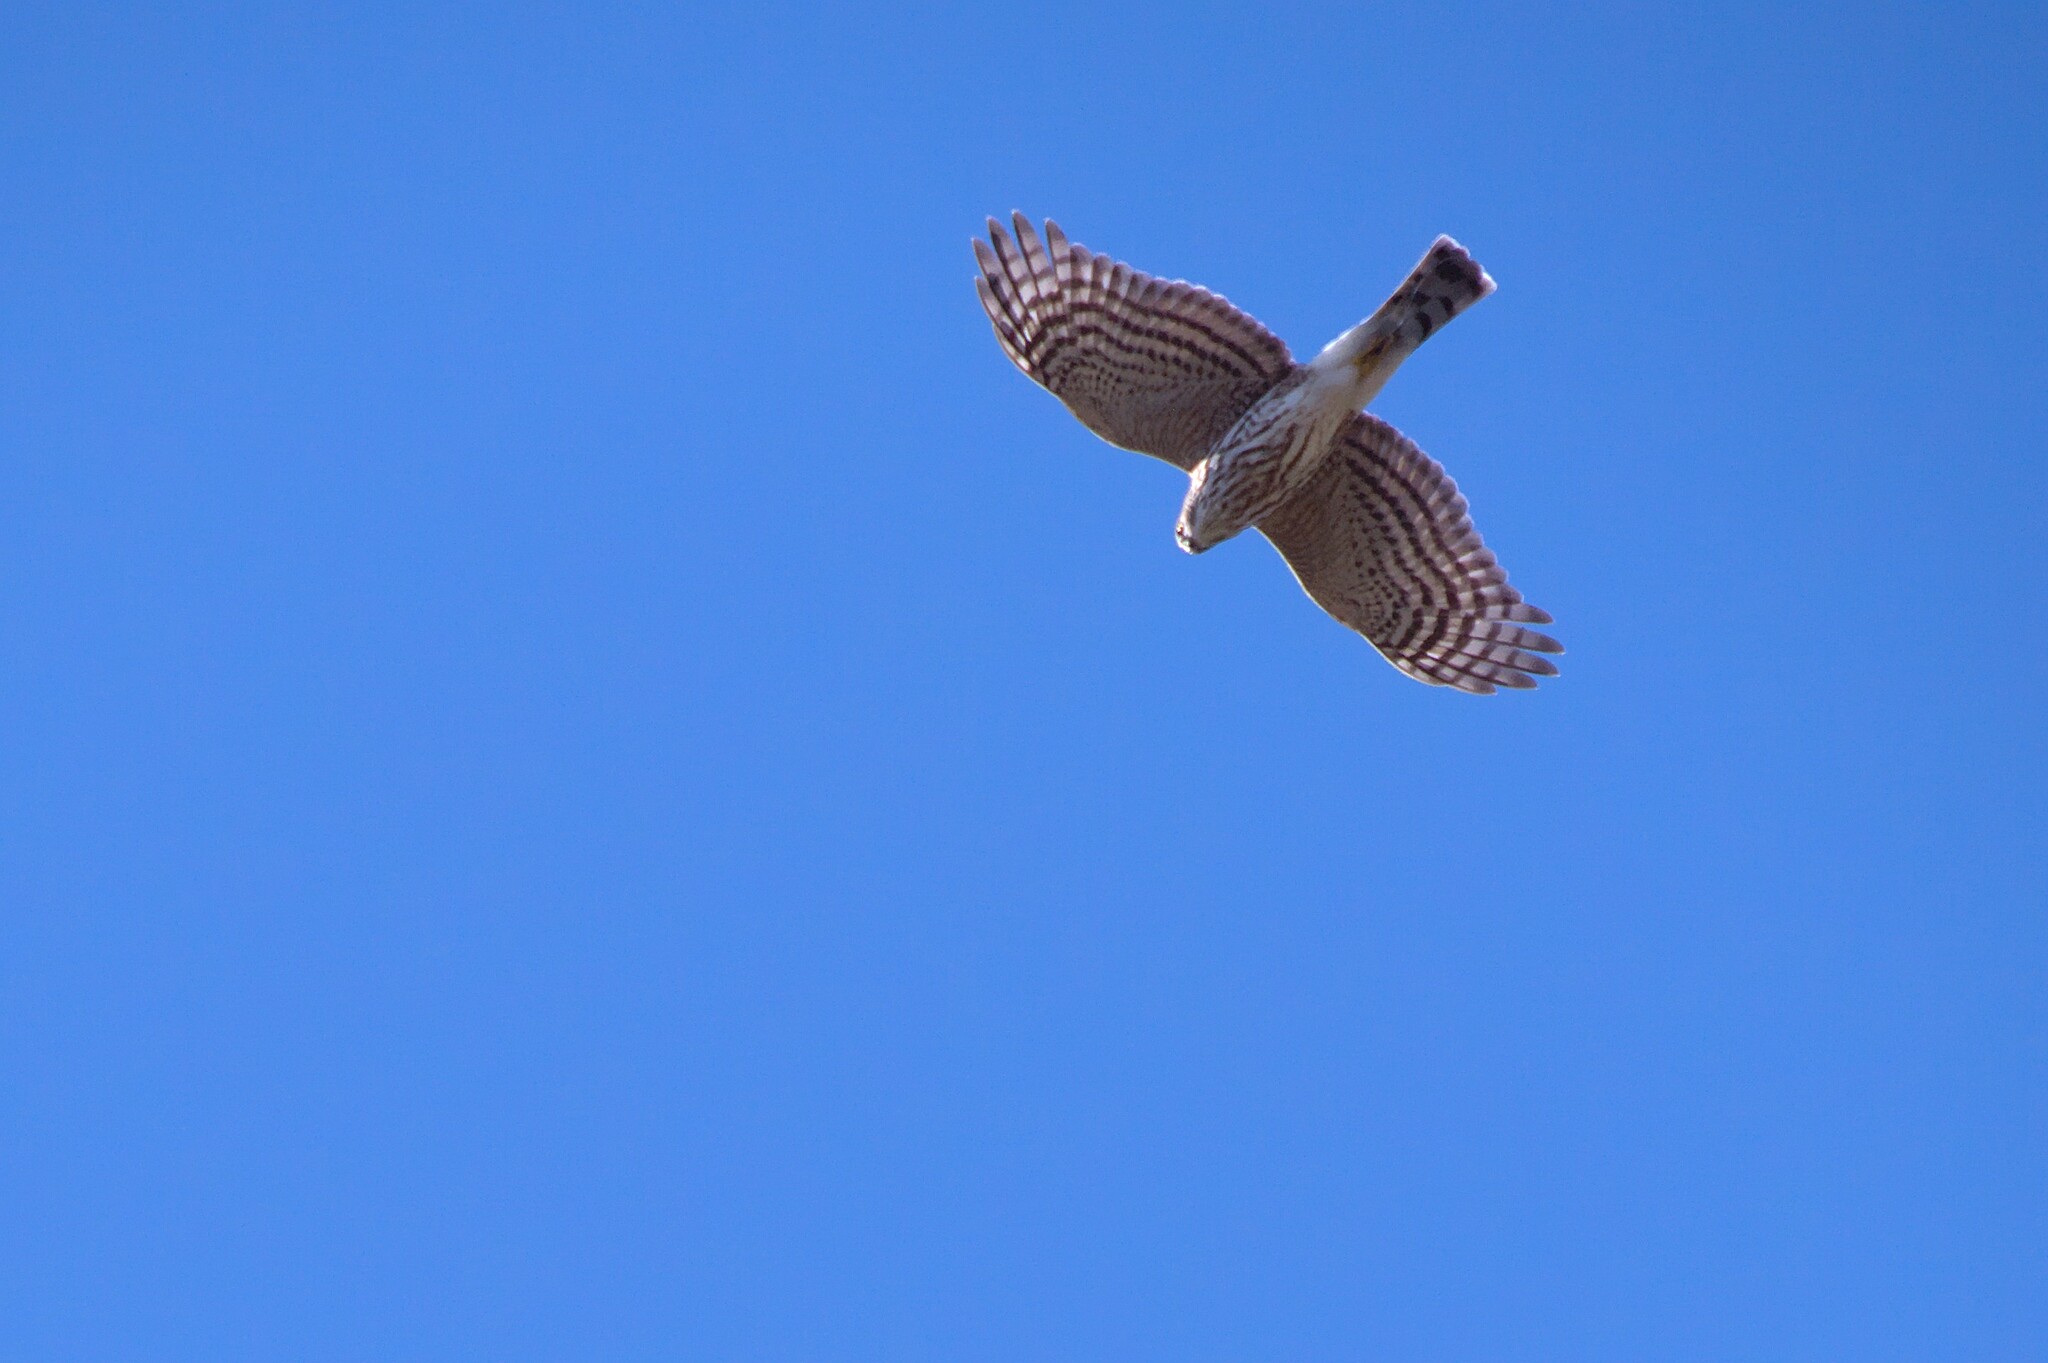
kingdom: Animalia
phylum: Chordata
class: Aves
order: Accipitriformes
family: Accipitridae
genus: Accipiter
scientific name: Accipiter striatus
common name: Sharp-shinned hawk
